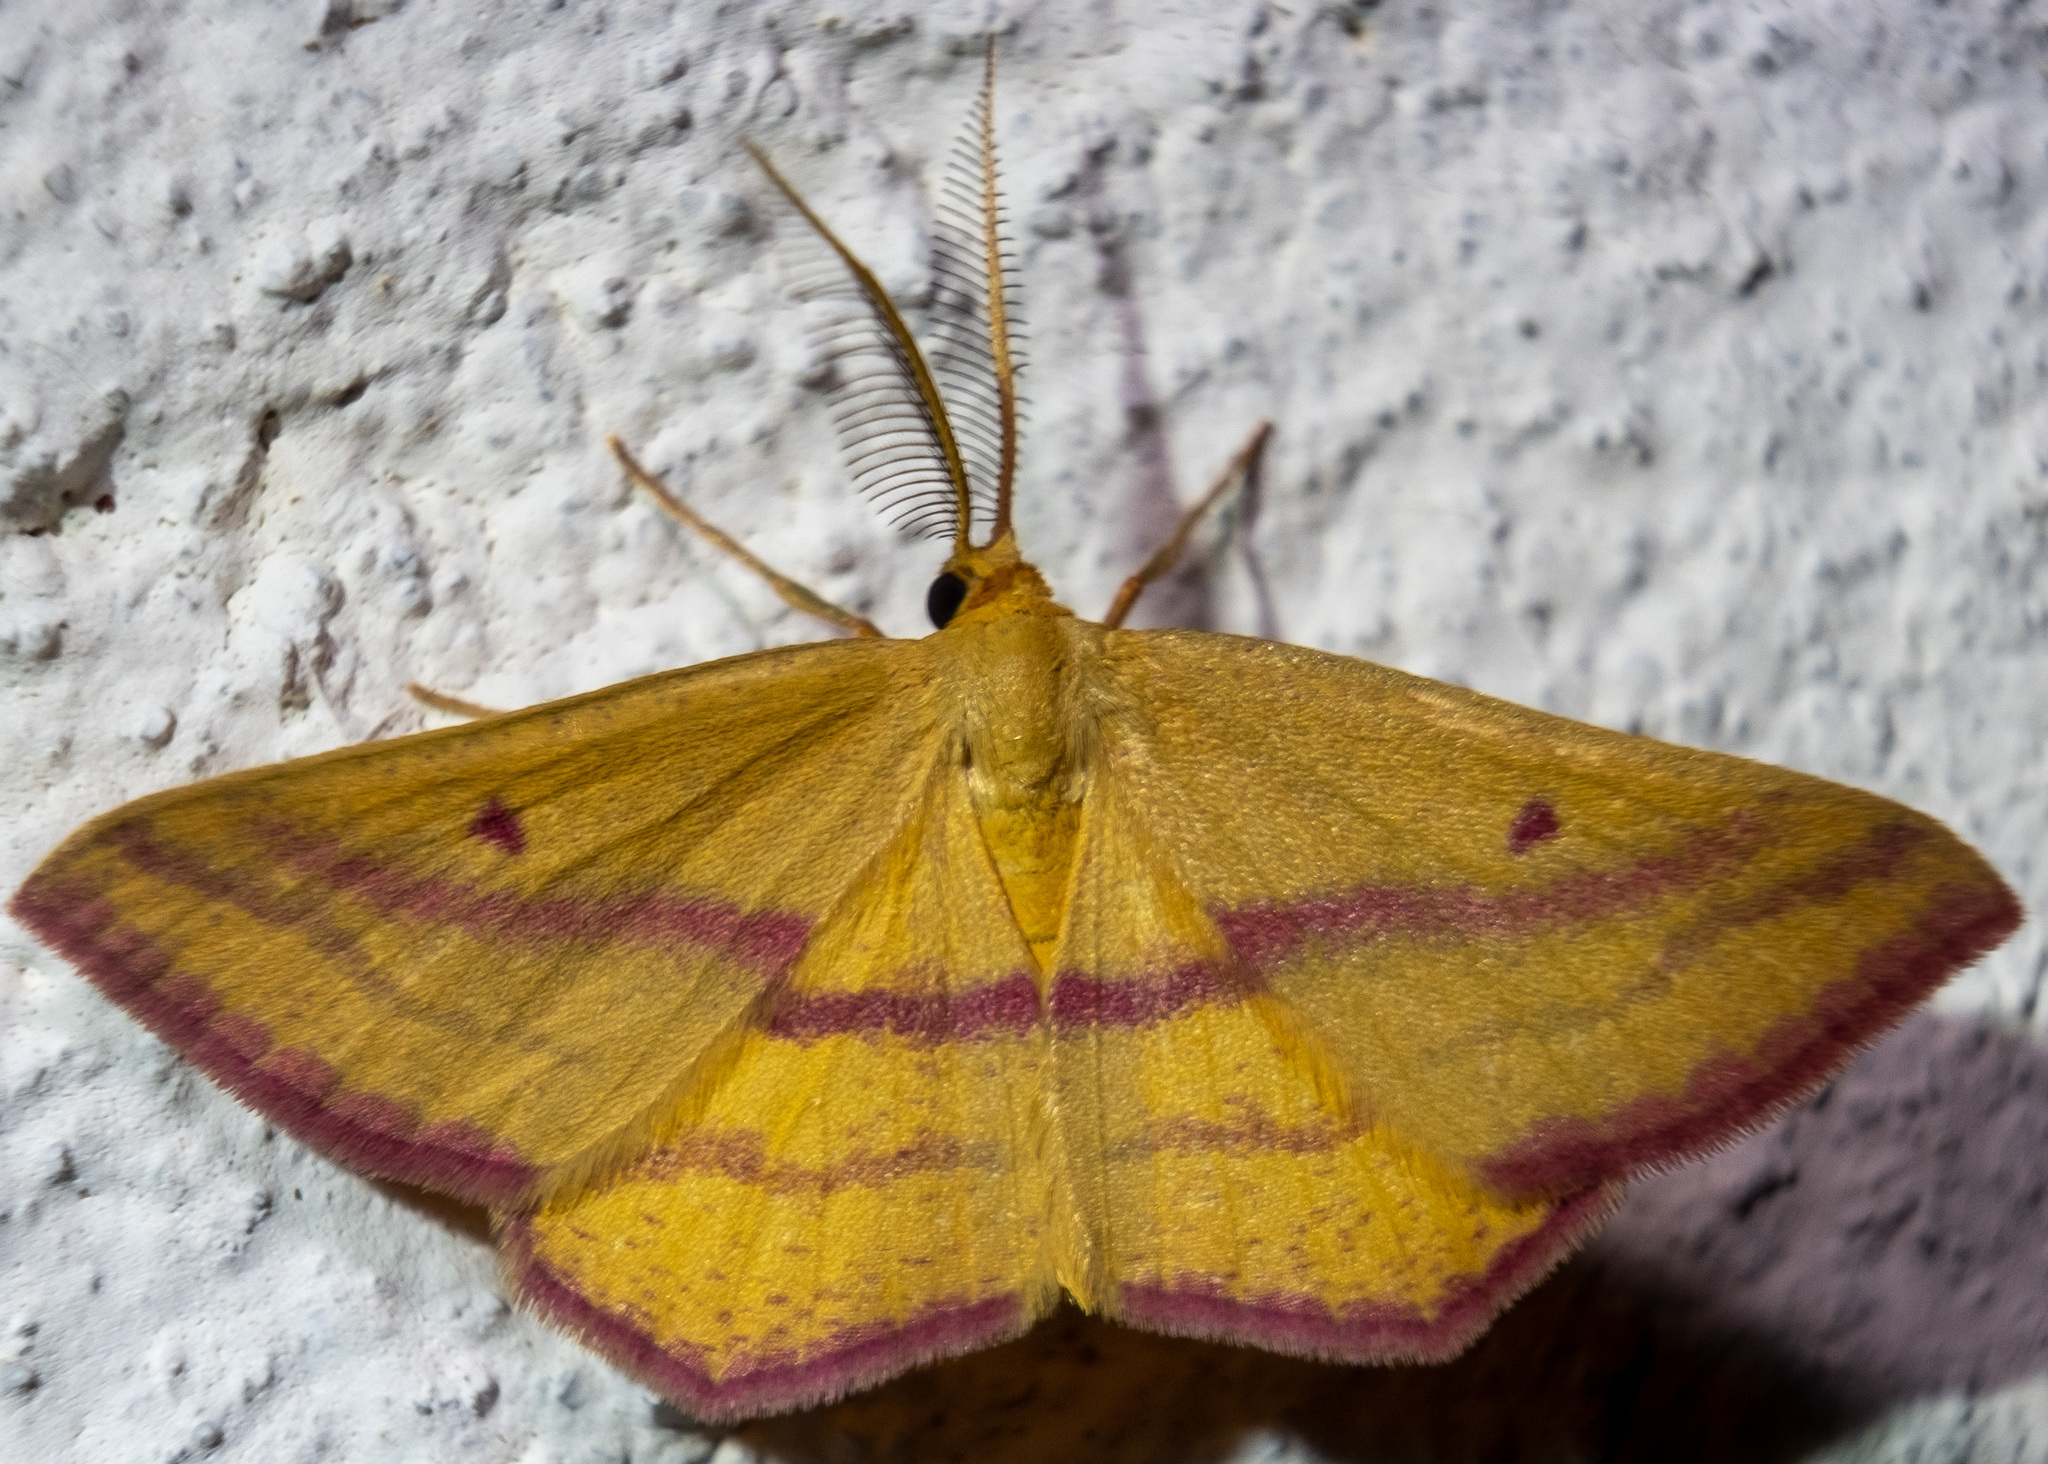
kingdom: Animalia
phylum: Arthropoda
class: Insecta
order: Lepidoptera
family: Geometridae
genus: Haematopis
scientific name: Haematopis grataria
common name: Chickweed geometer
